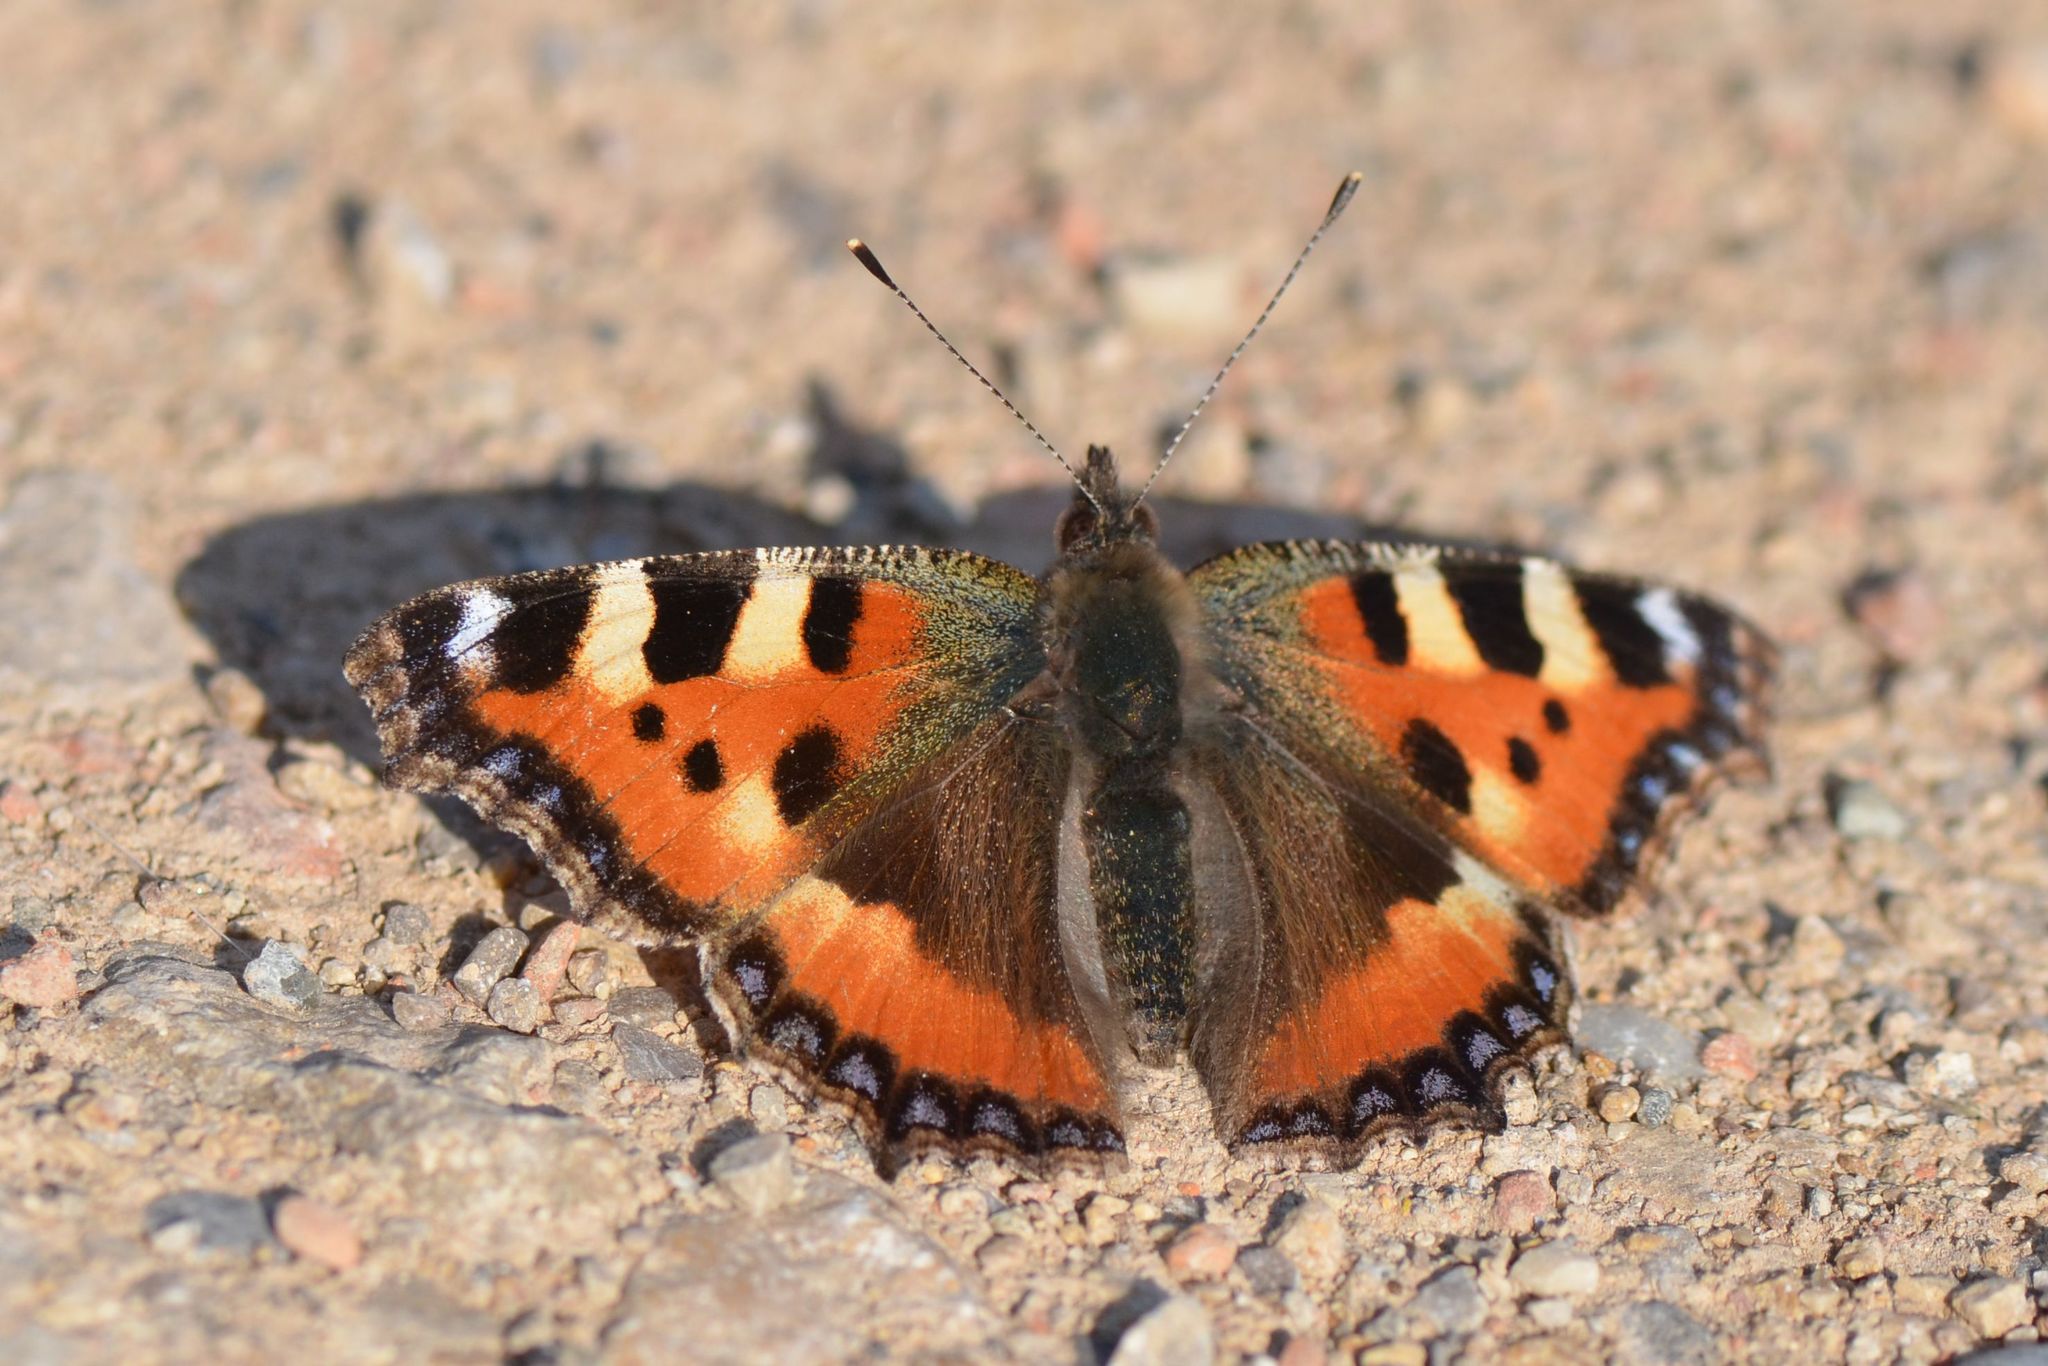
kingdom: Animalia
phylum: Arthropoda
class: Insecta
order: Lepidoptera
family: Nymphalidae
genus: Aglais
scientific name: Aglais urticae
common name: Small tortoiseshell
